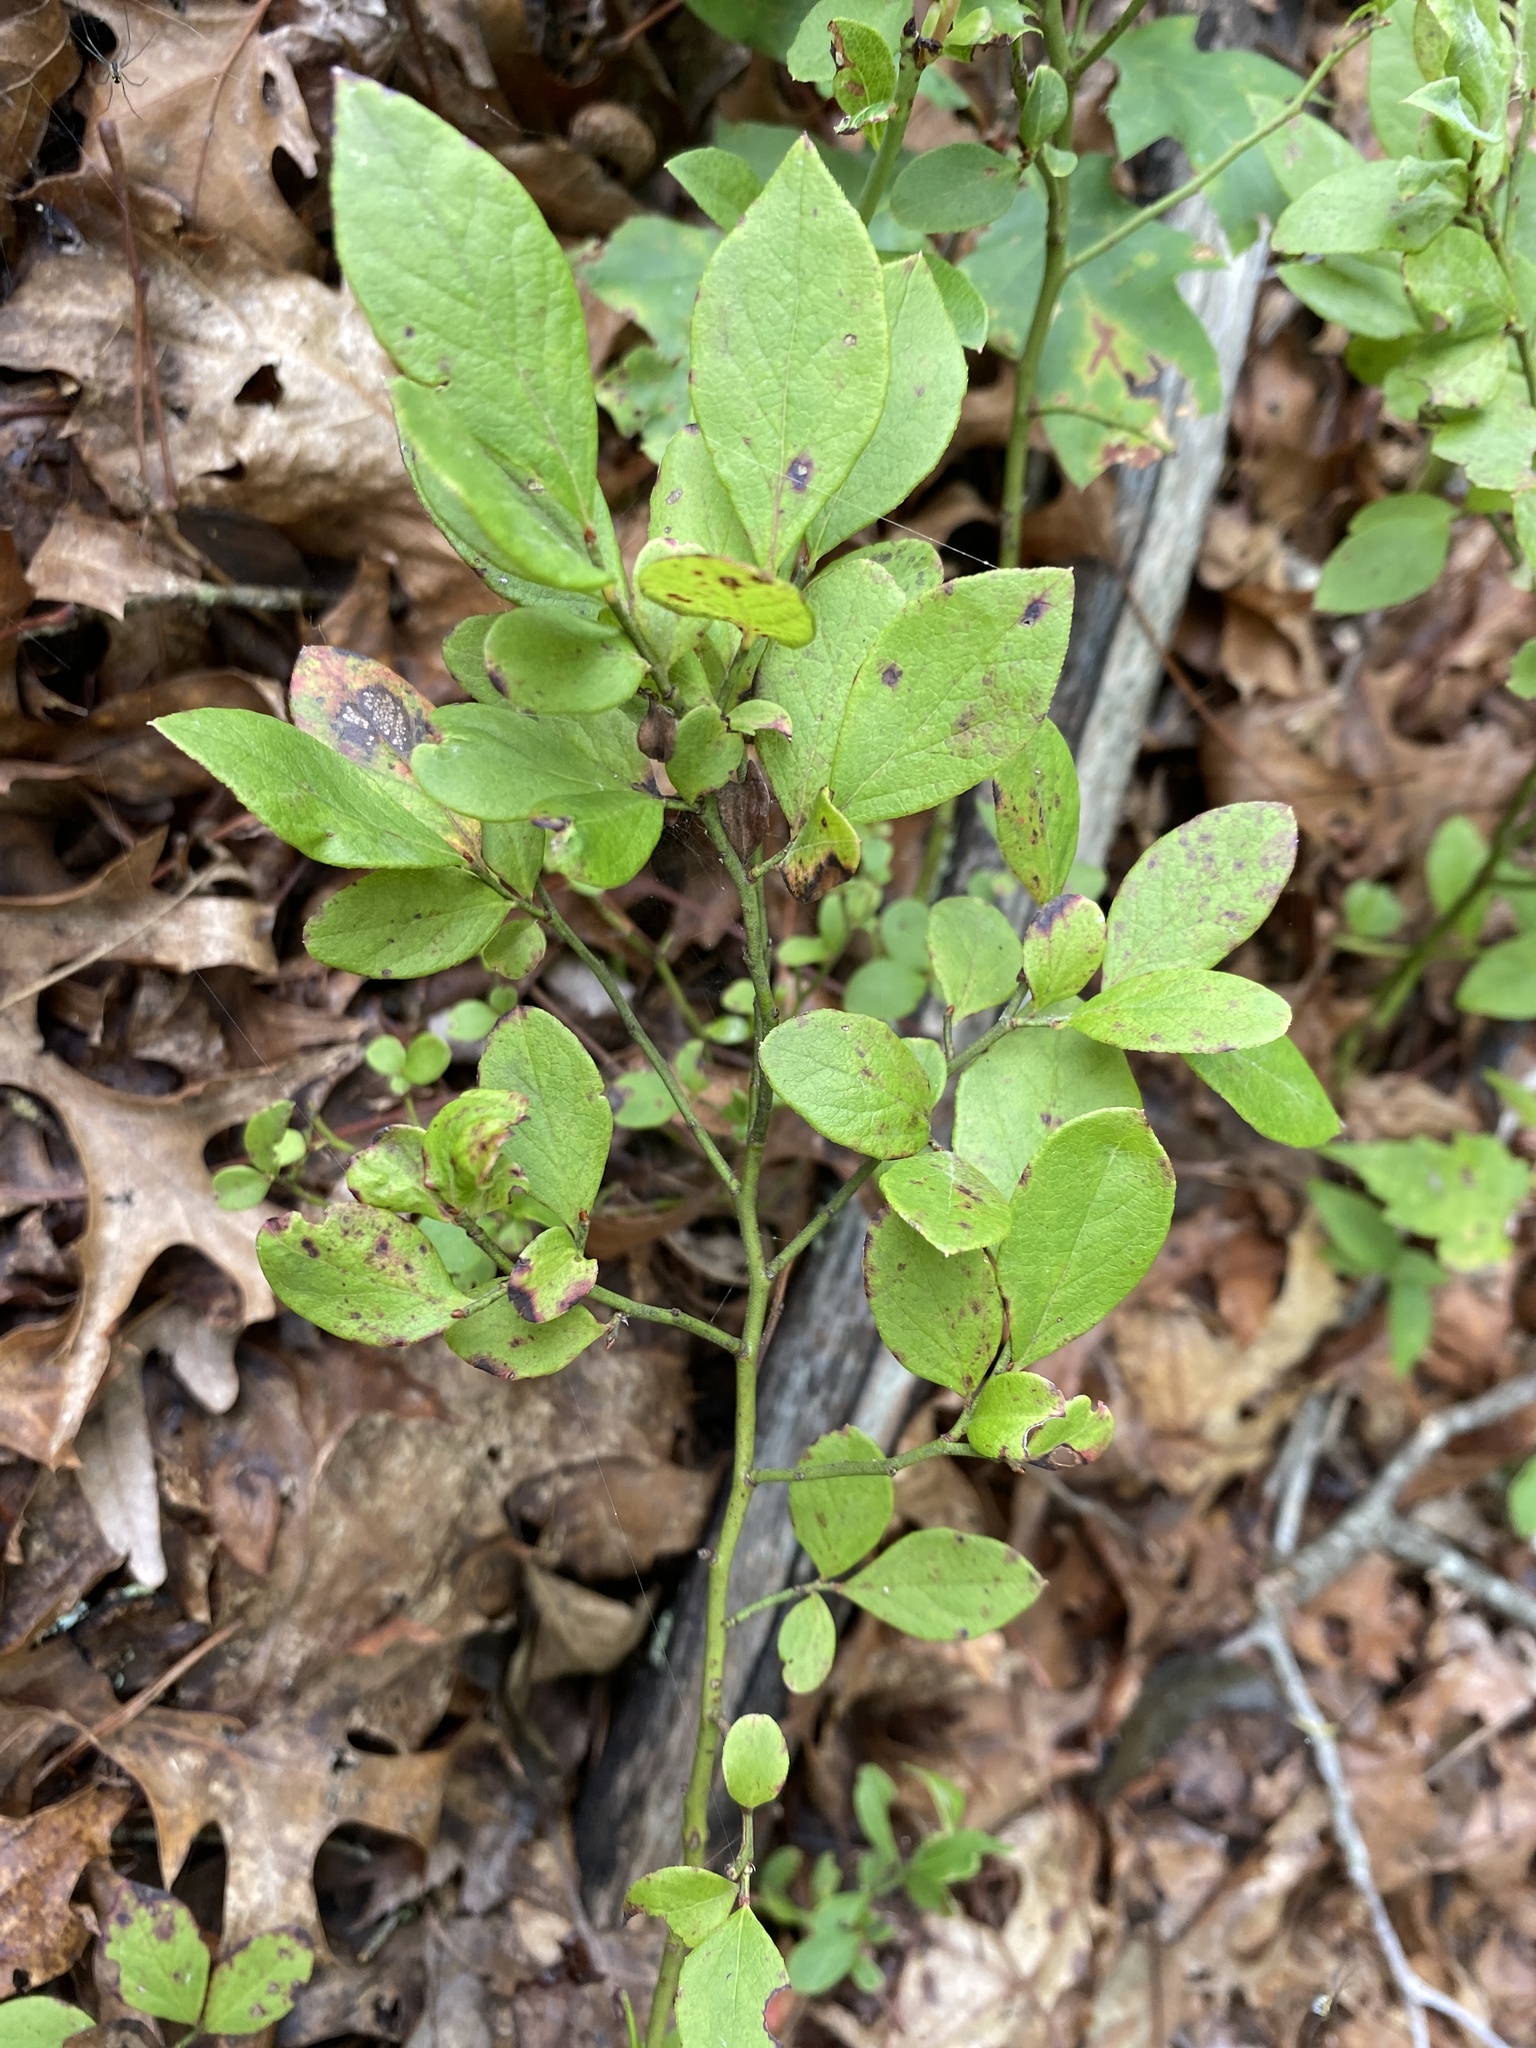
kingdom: Plantae
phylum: Tracheophyta
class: Magnoliopsida
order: Ericales
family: Ericaceae
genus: Vaccinium
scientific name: Vaccinium pallidum
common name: Blue ridge blueberry
